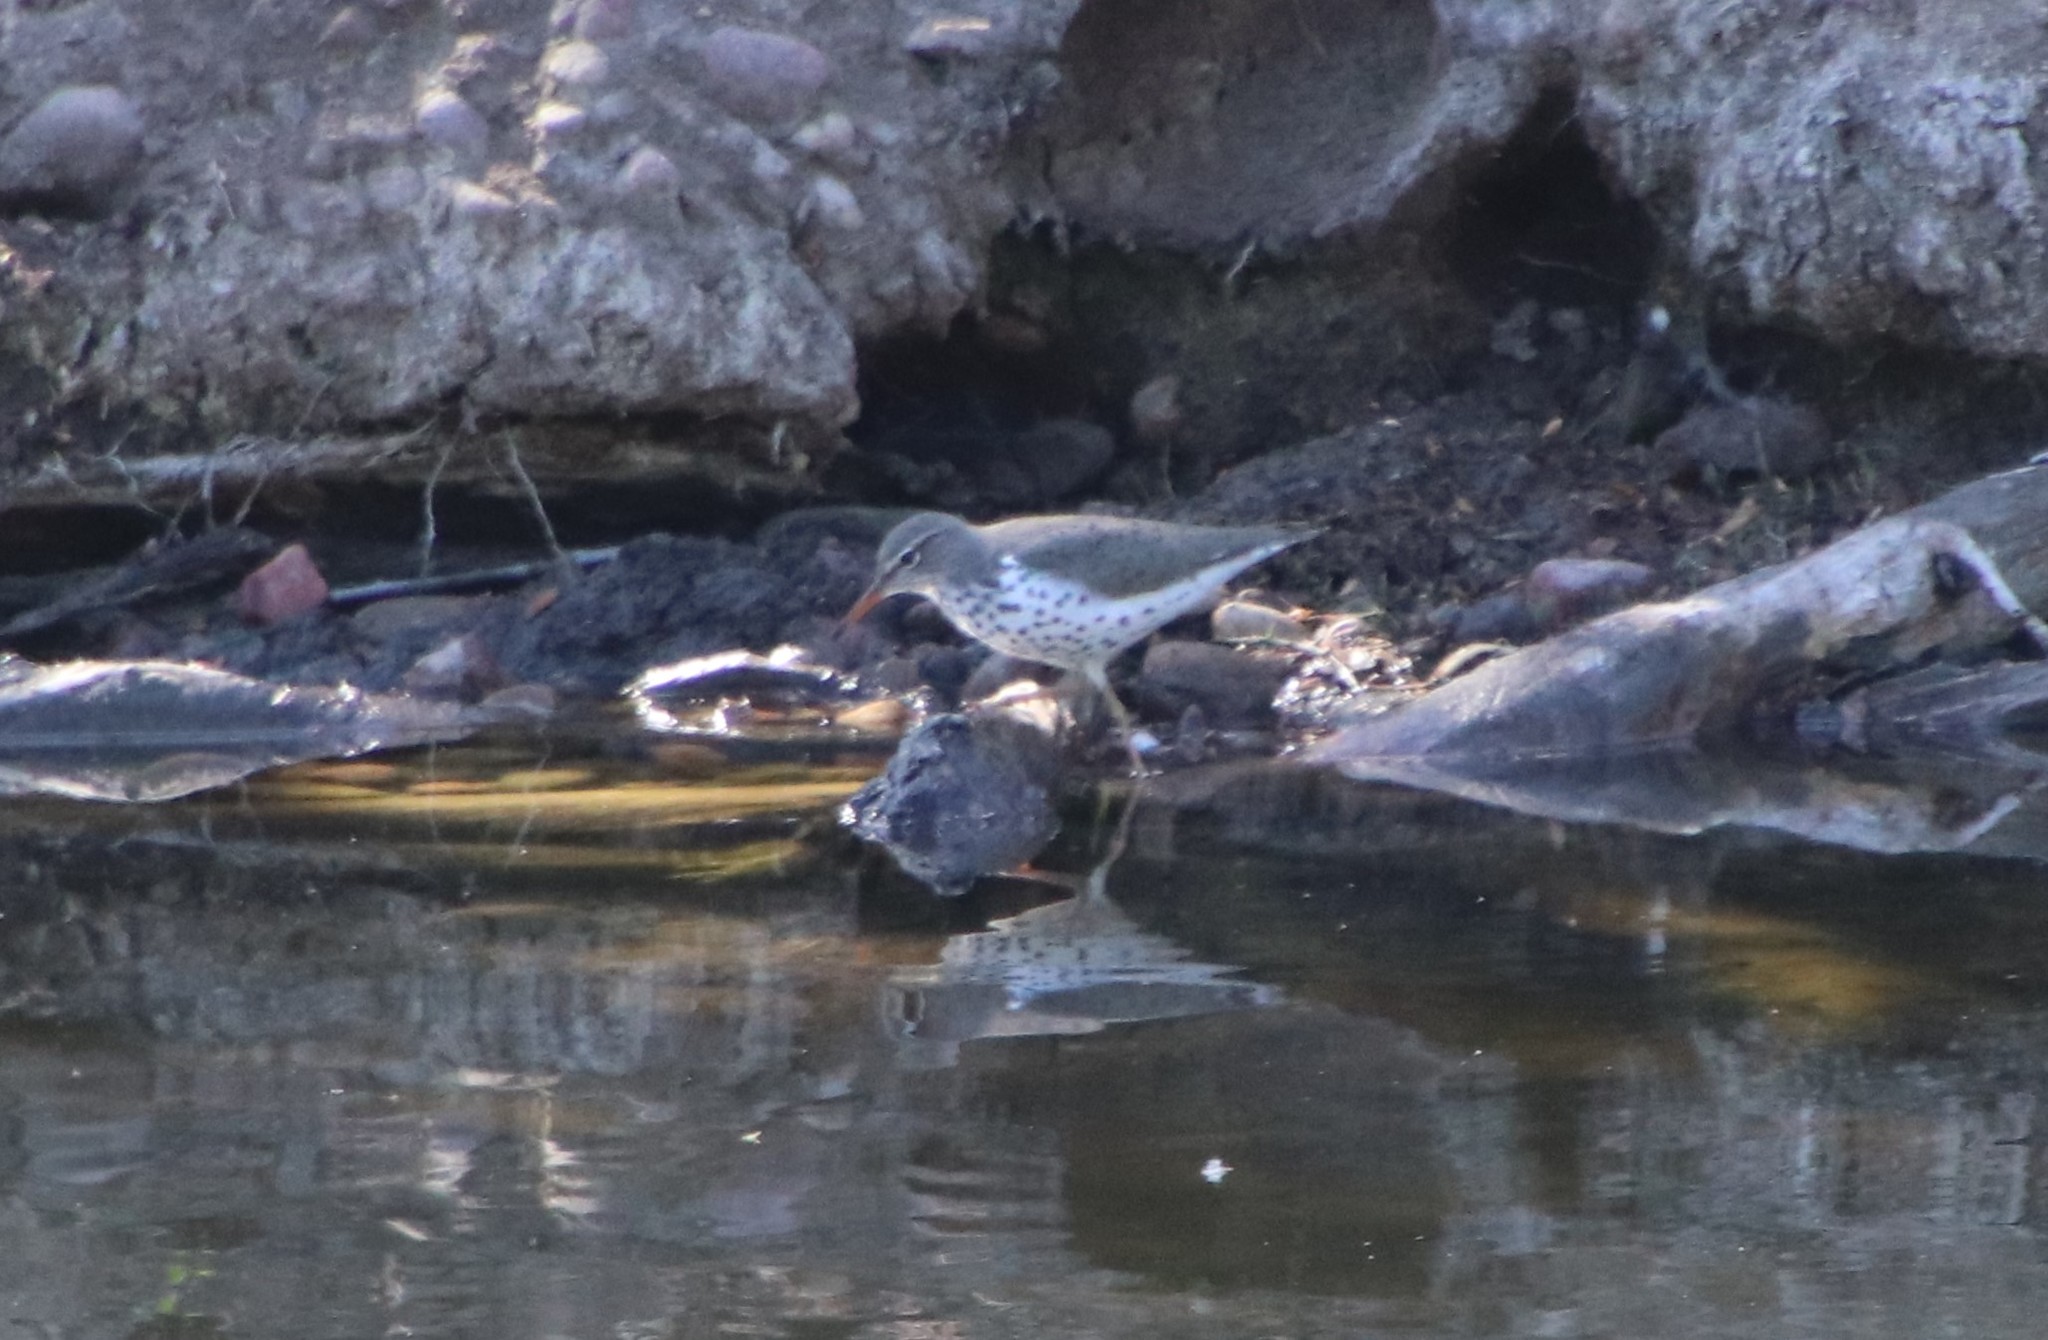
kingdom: Animalia
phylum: Chordata
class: Aves
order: Charadriiformes
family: Scolopacidae
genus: Actitis
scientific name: Actitis macularius
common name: Spotted sandpiper
